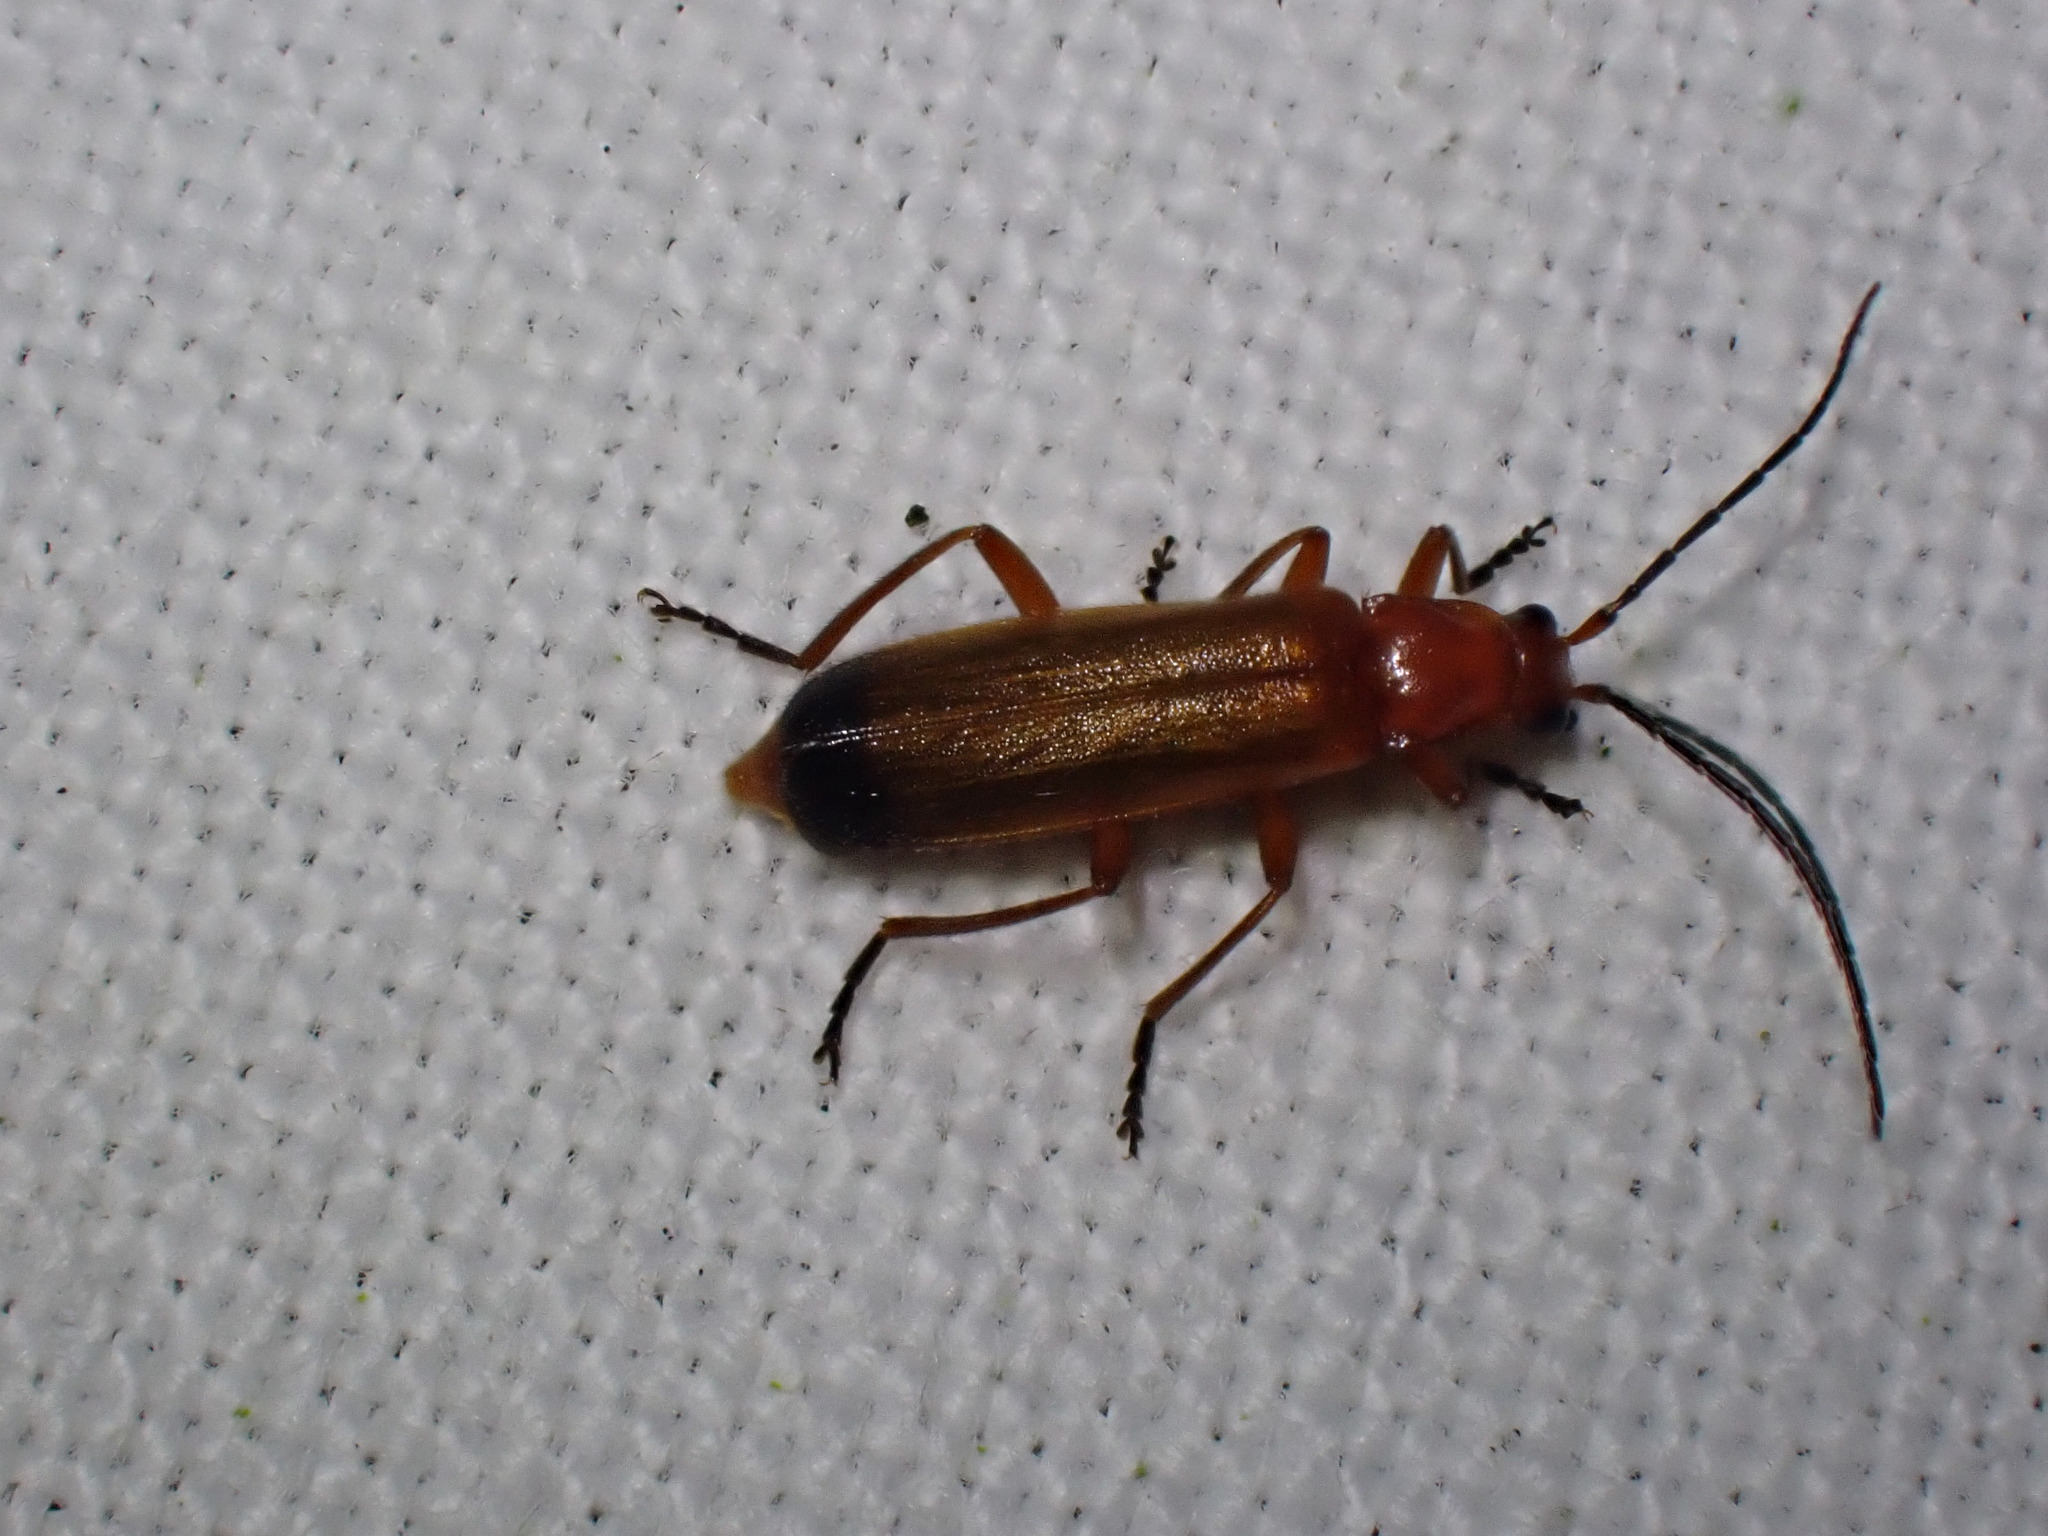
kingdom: Animalia
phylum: Arthropoda
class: Insecta
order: Coleoptera
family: Cantharidae
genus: Rhagonycha
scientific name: Rhagonycha fulva
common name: Common red soldier beetle
